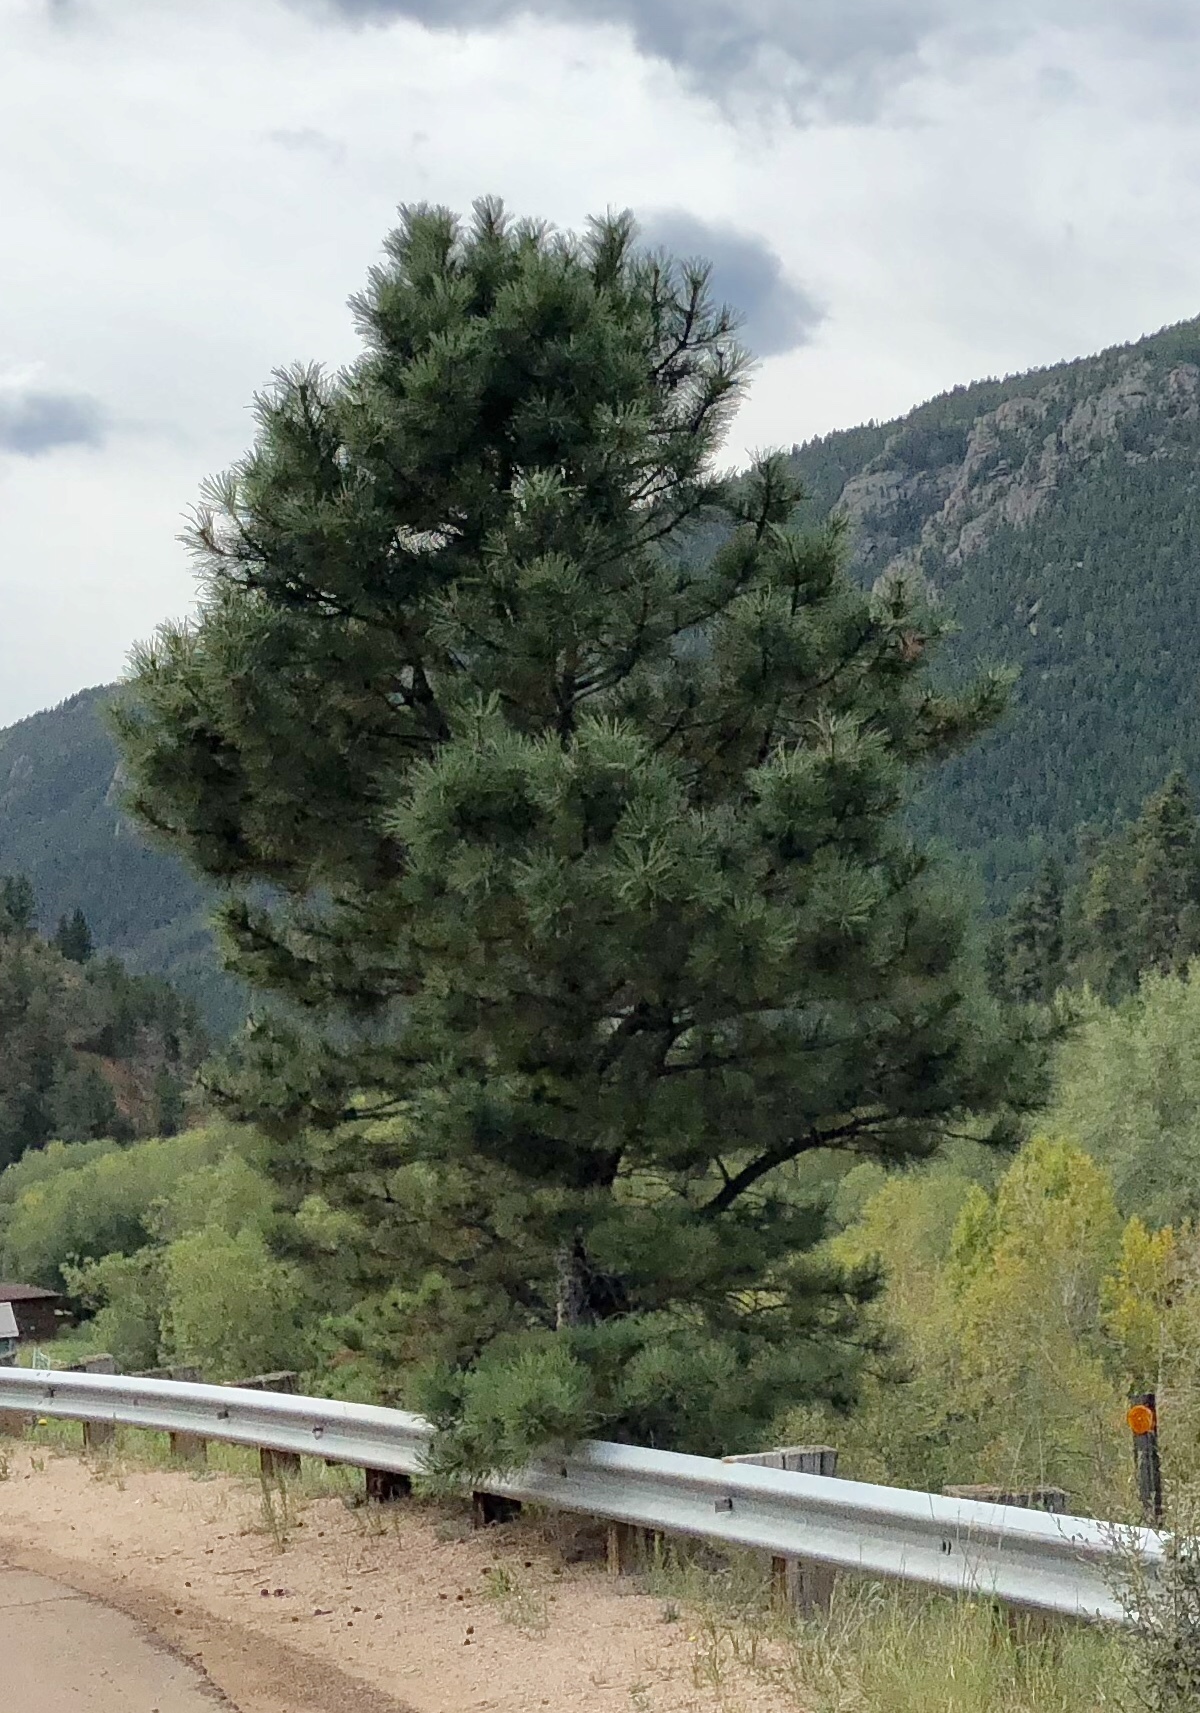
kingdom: Plantae
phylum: Tracheophyta
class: Pinopsida
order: Pinales
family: Pinaceae
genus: Pinus
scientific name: Pinus ponderosa
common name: Western yellow-pine
